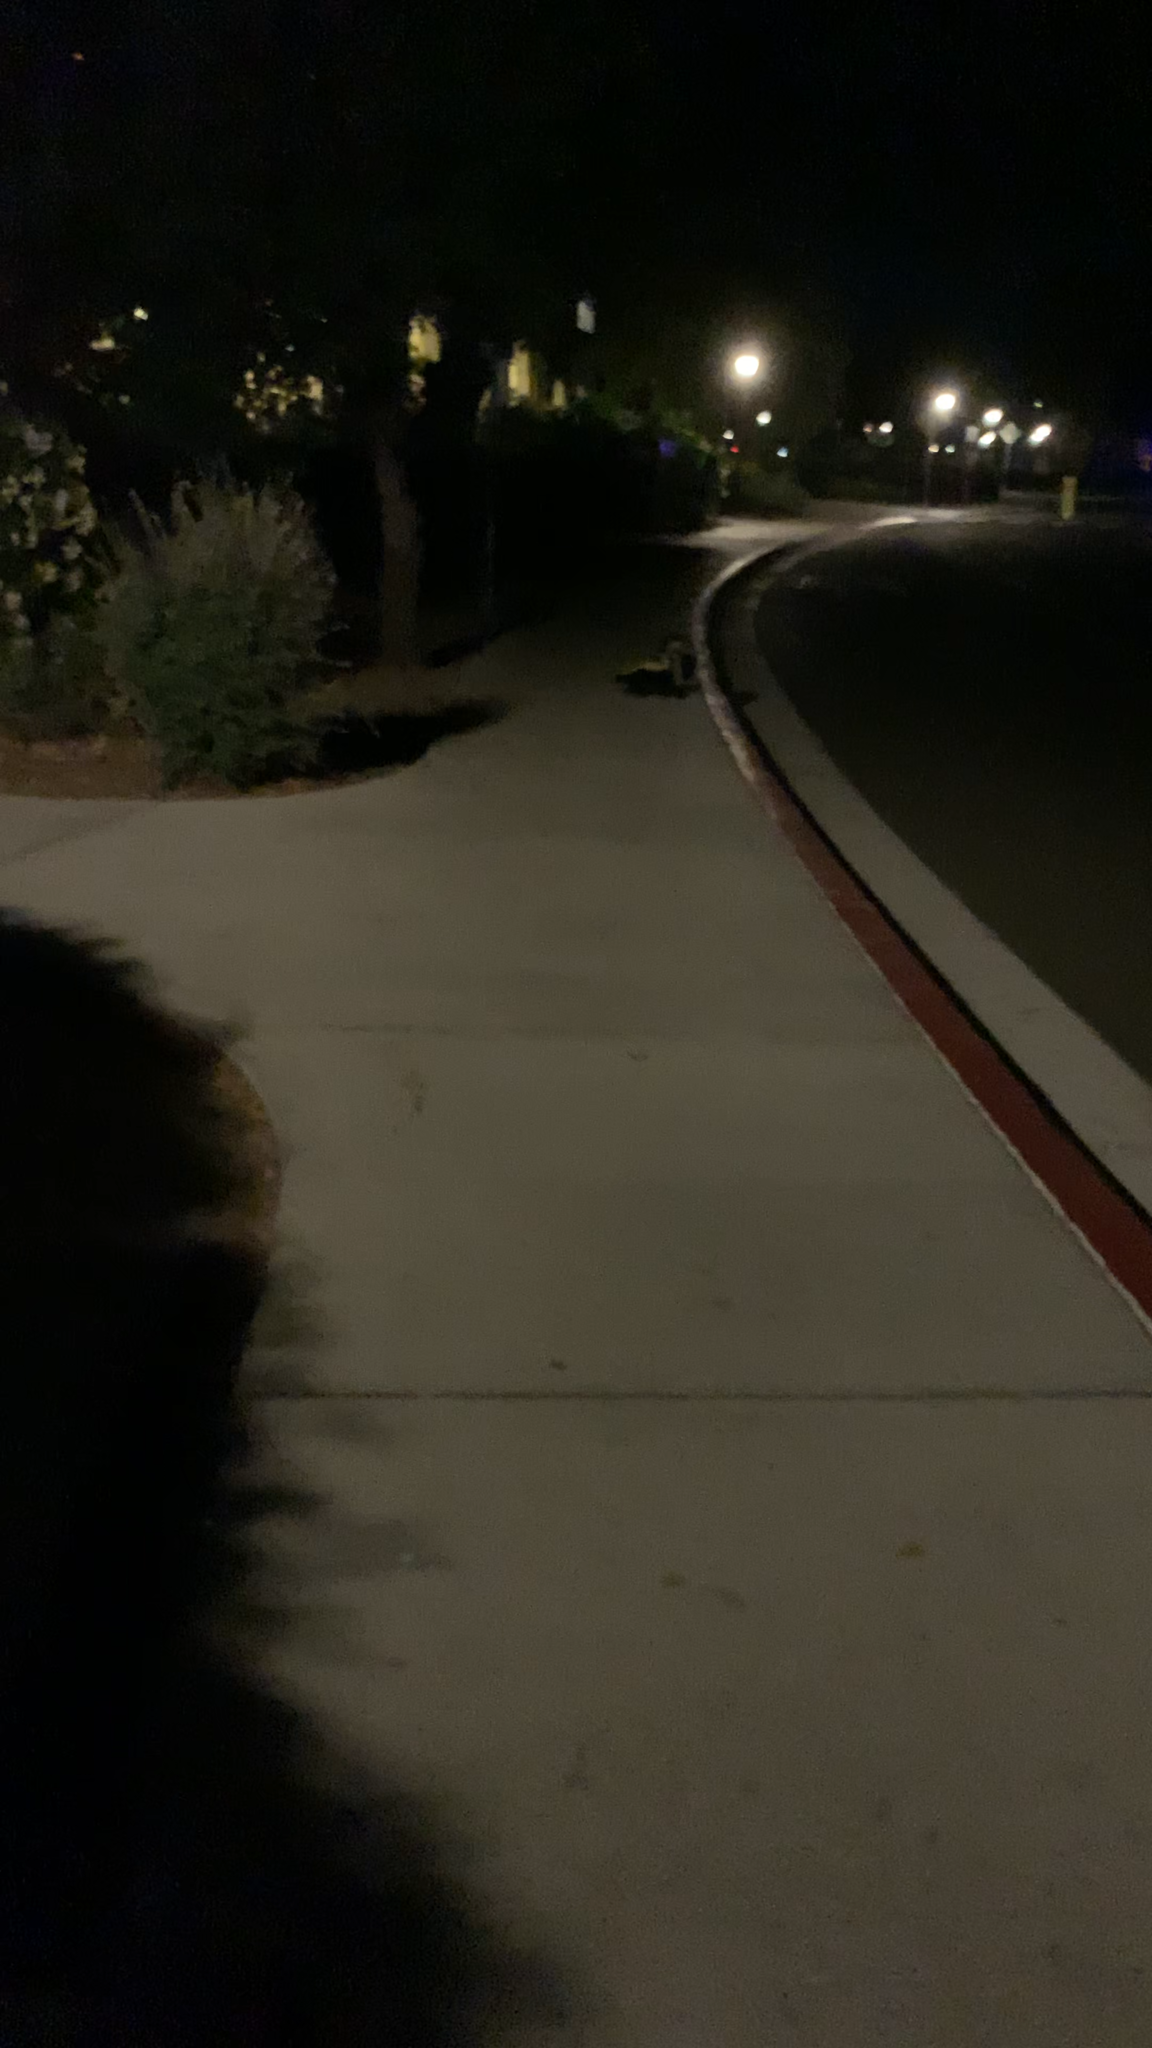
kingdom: Animalia
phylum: Chordata
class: Mammalia
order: Carnivora
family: Mephitidae
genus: Mephitis
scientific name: Mephitis mephitis
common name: Striped skunk
